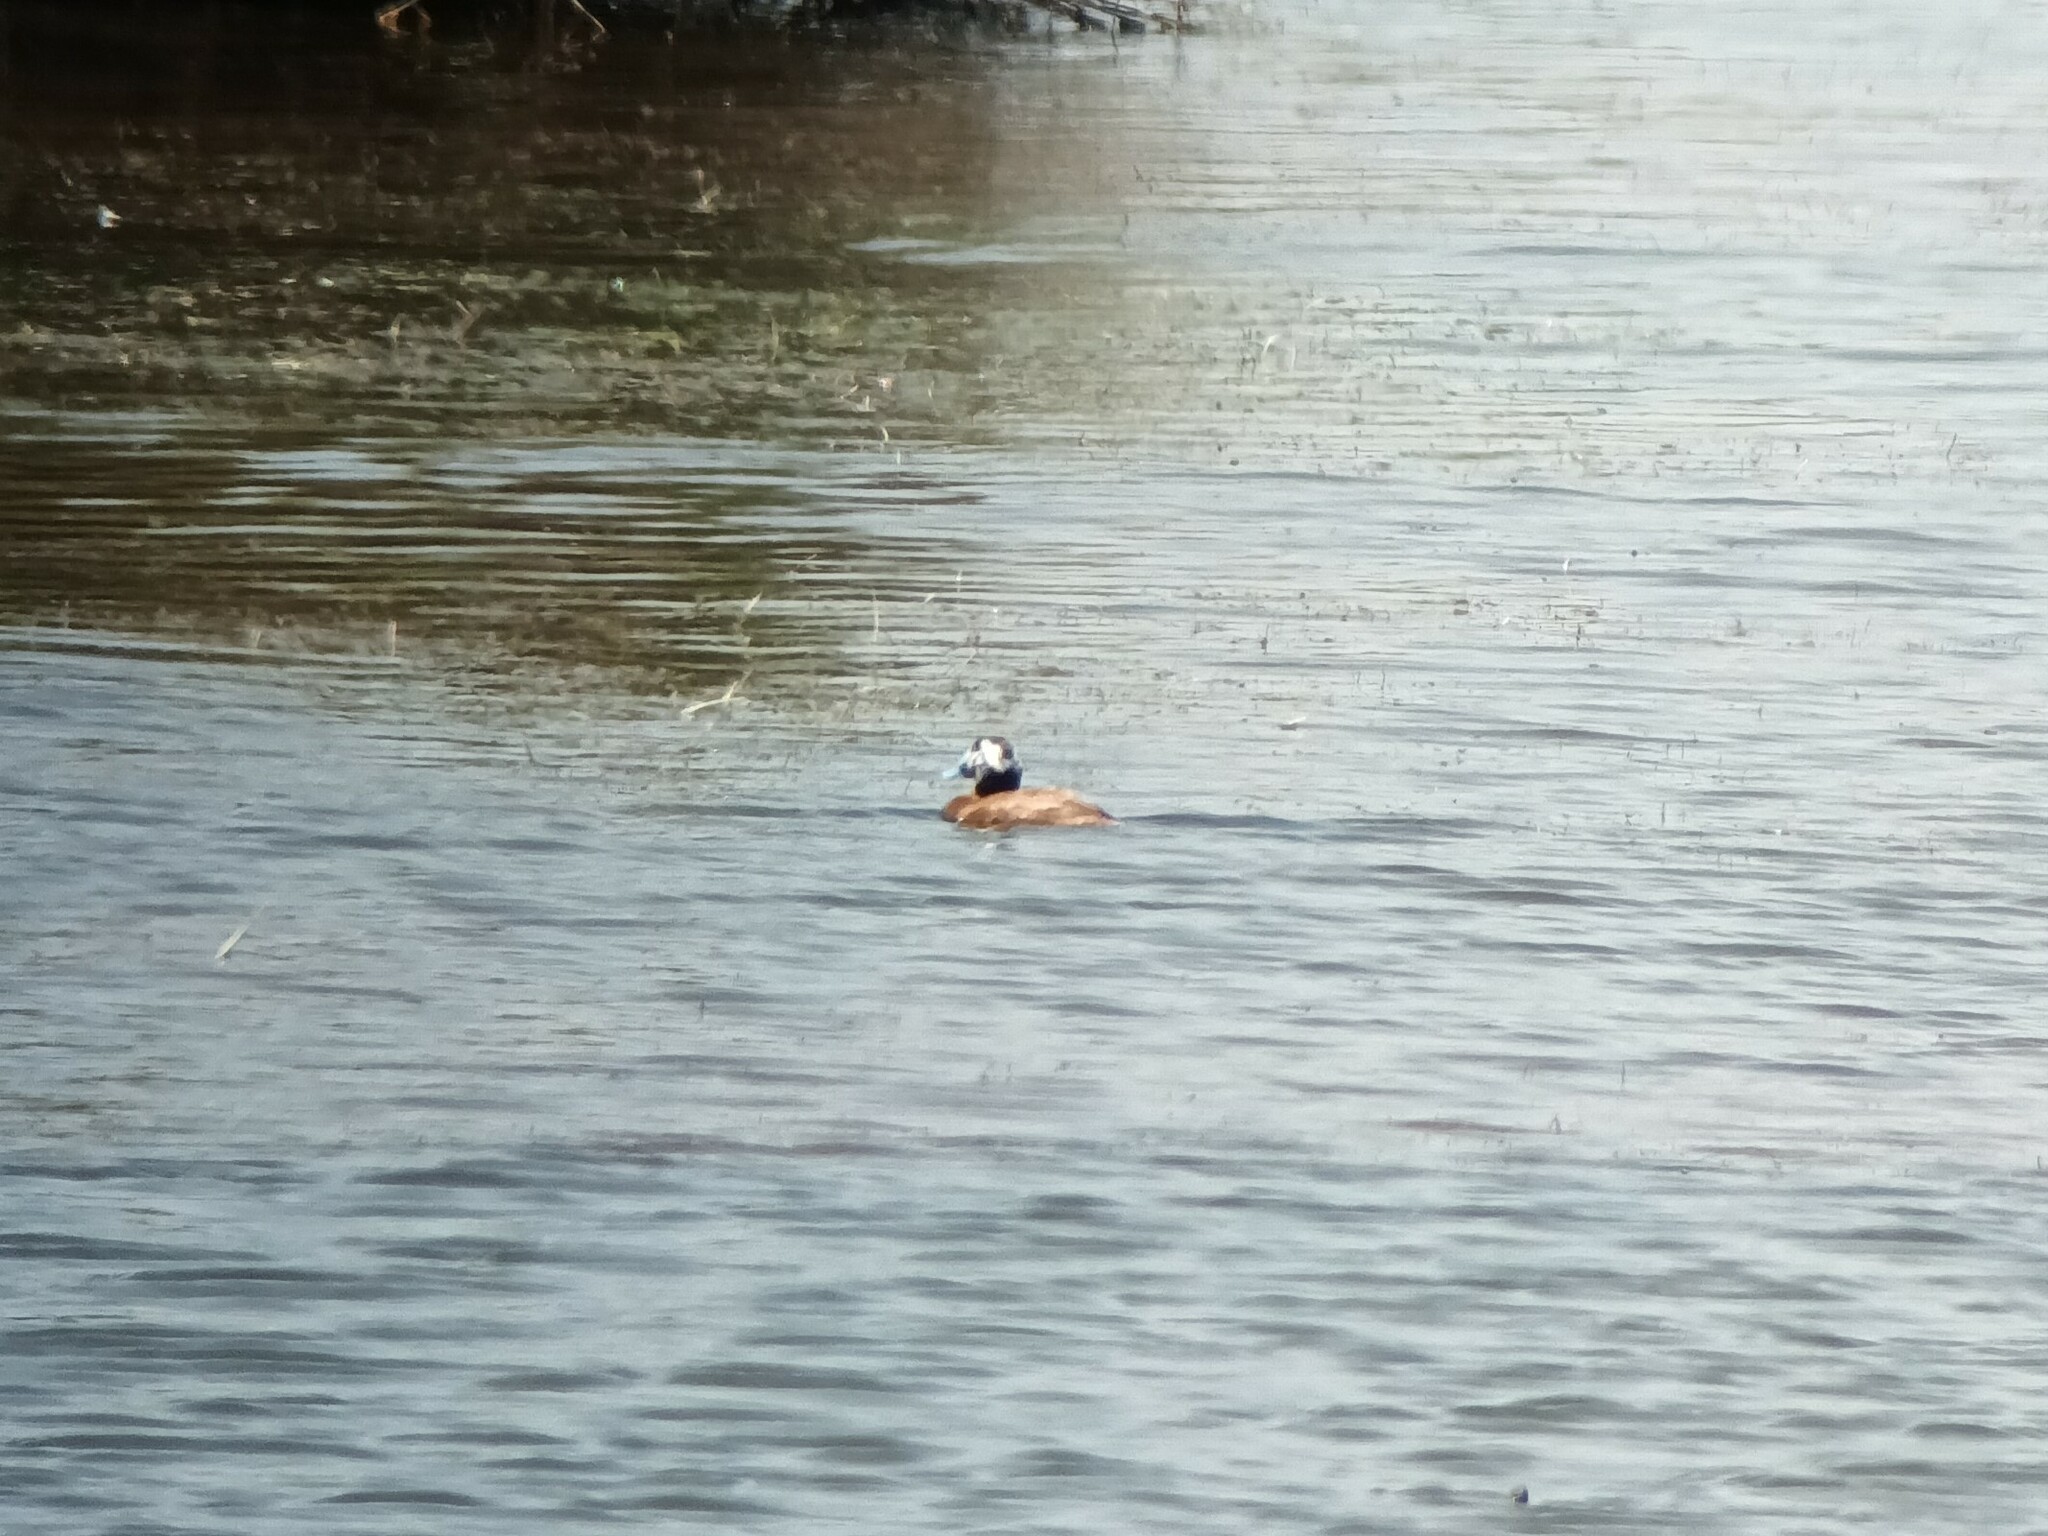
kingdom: Animalia
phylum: Chordata
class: Aves
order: Anseriformes
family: Anatidae
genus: Oxyura
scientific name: Oxyura leucocephala
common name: White-headed duck
